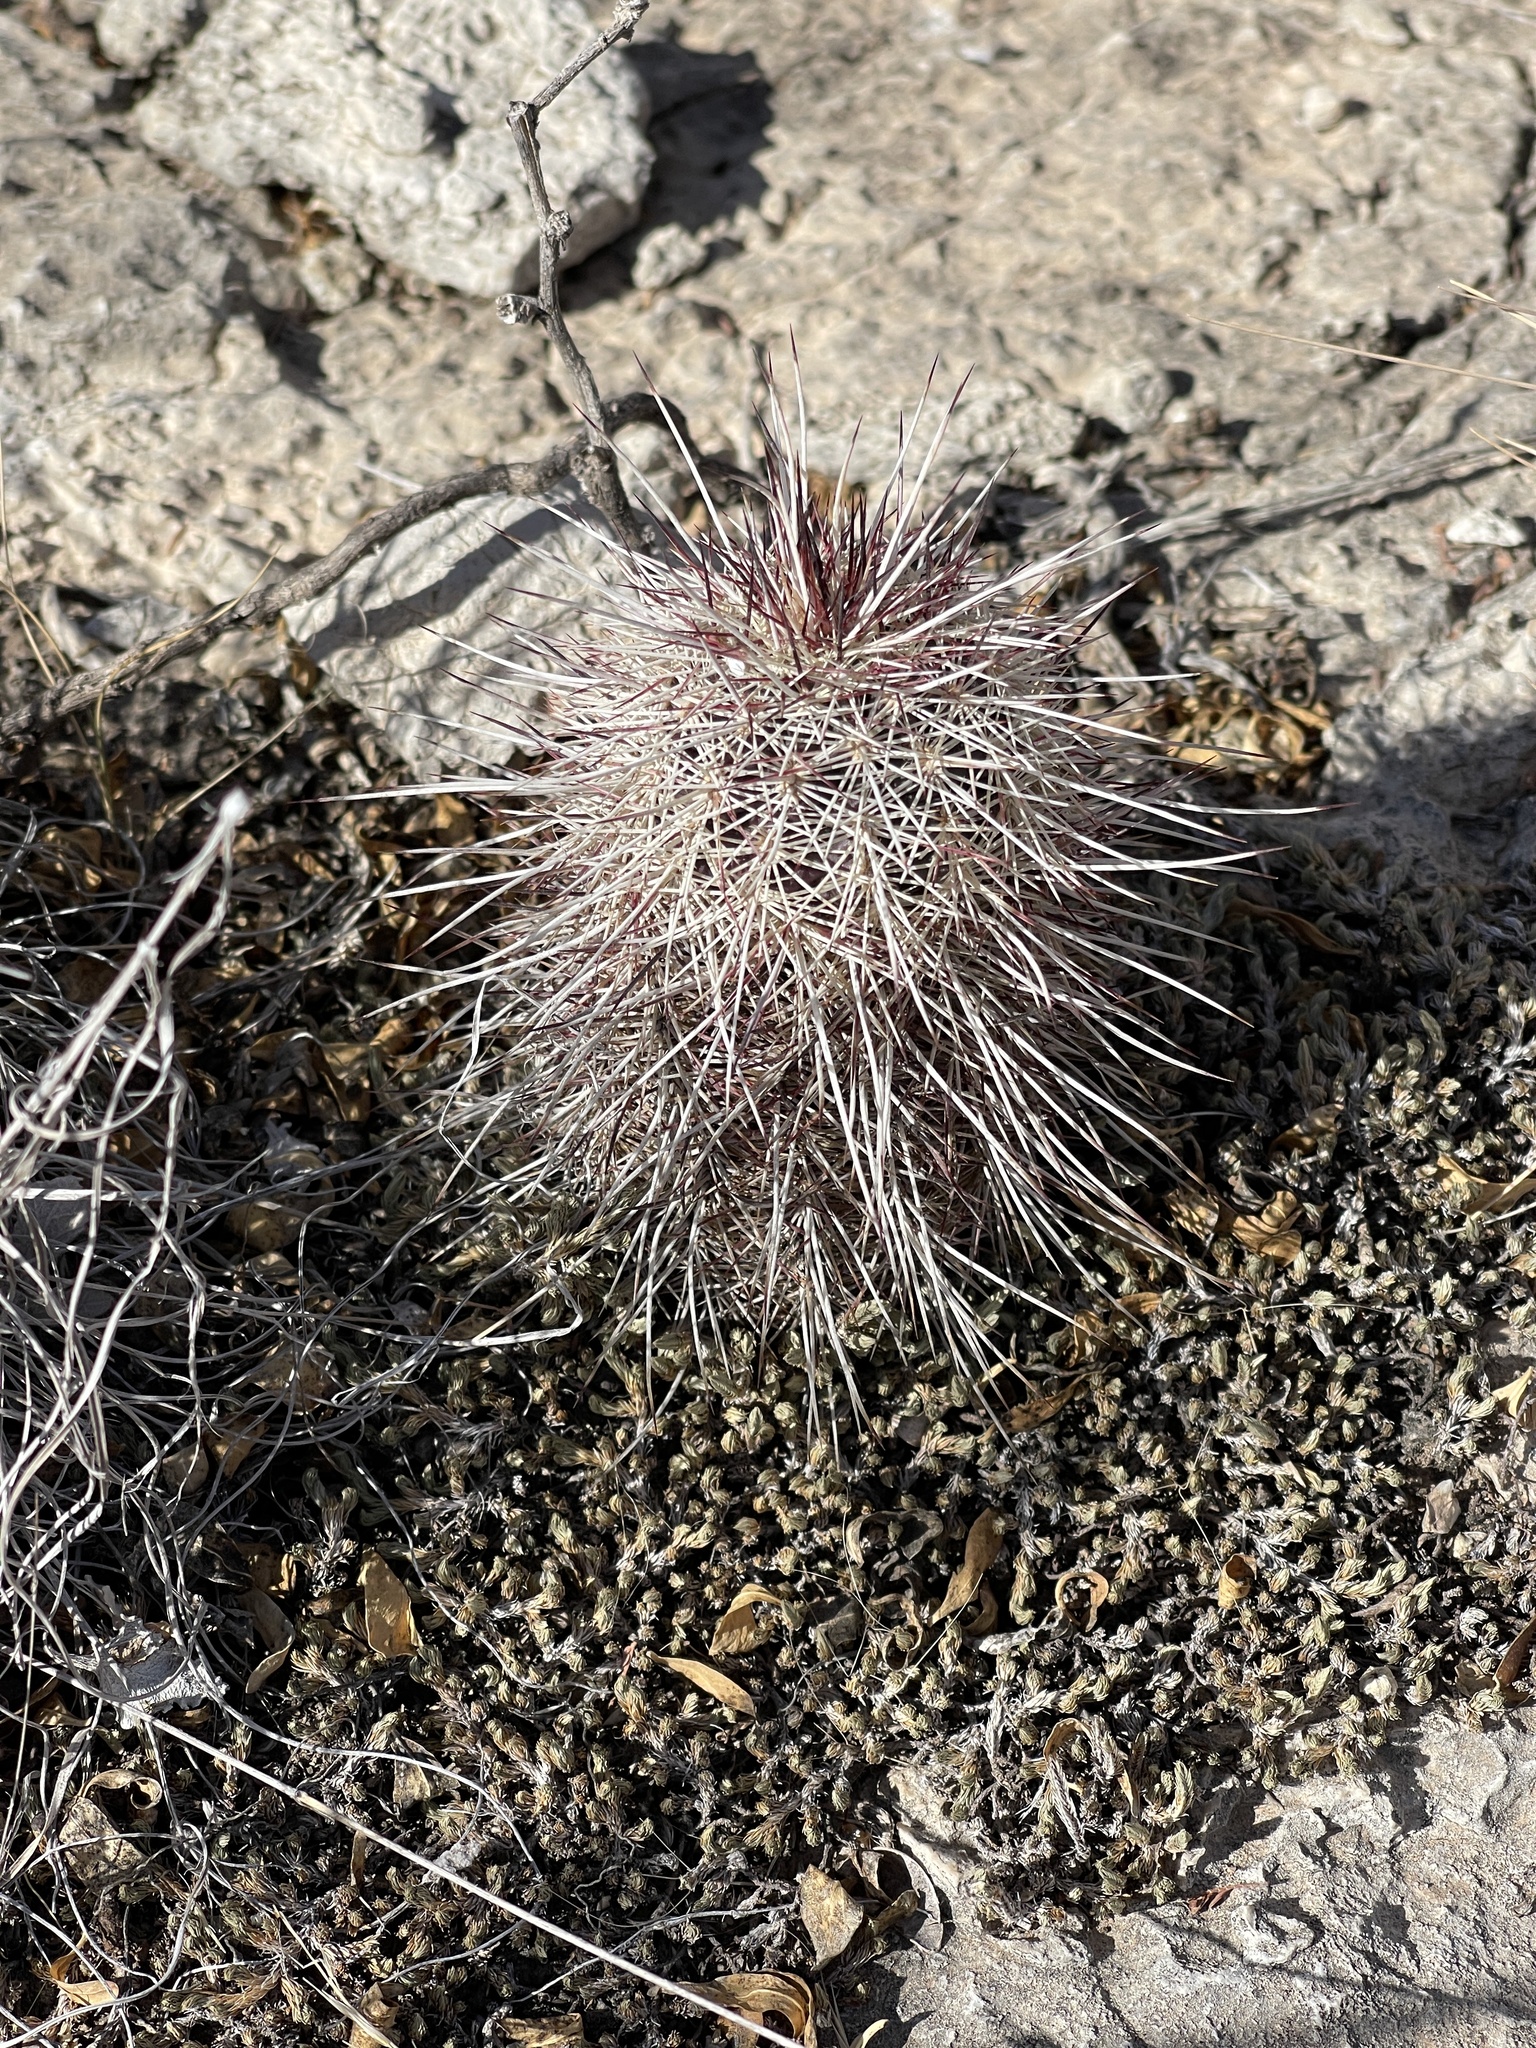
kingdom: Plantae
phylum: Tracheophyta
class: Magnoliopsida
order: Caryophyllales
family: Cactaceae
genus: Echinocereus
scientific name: Echinocereus viridiflorus
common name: Nylon hedgehog cactus
